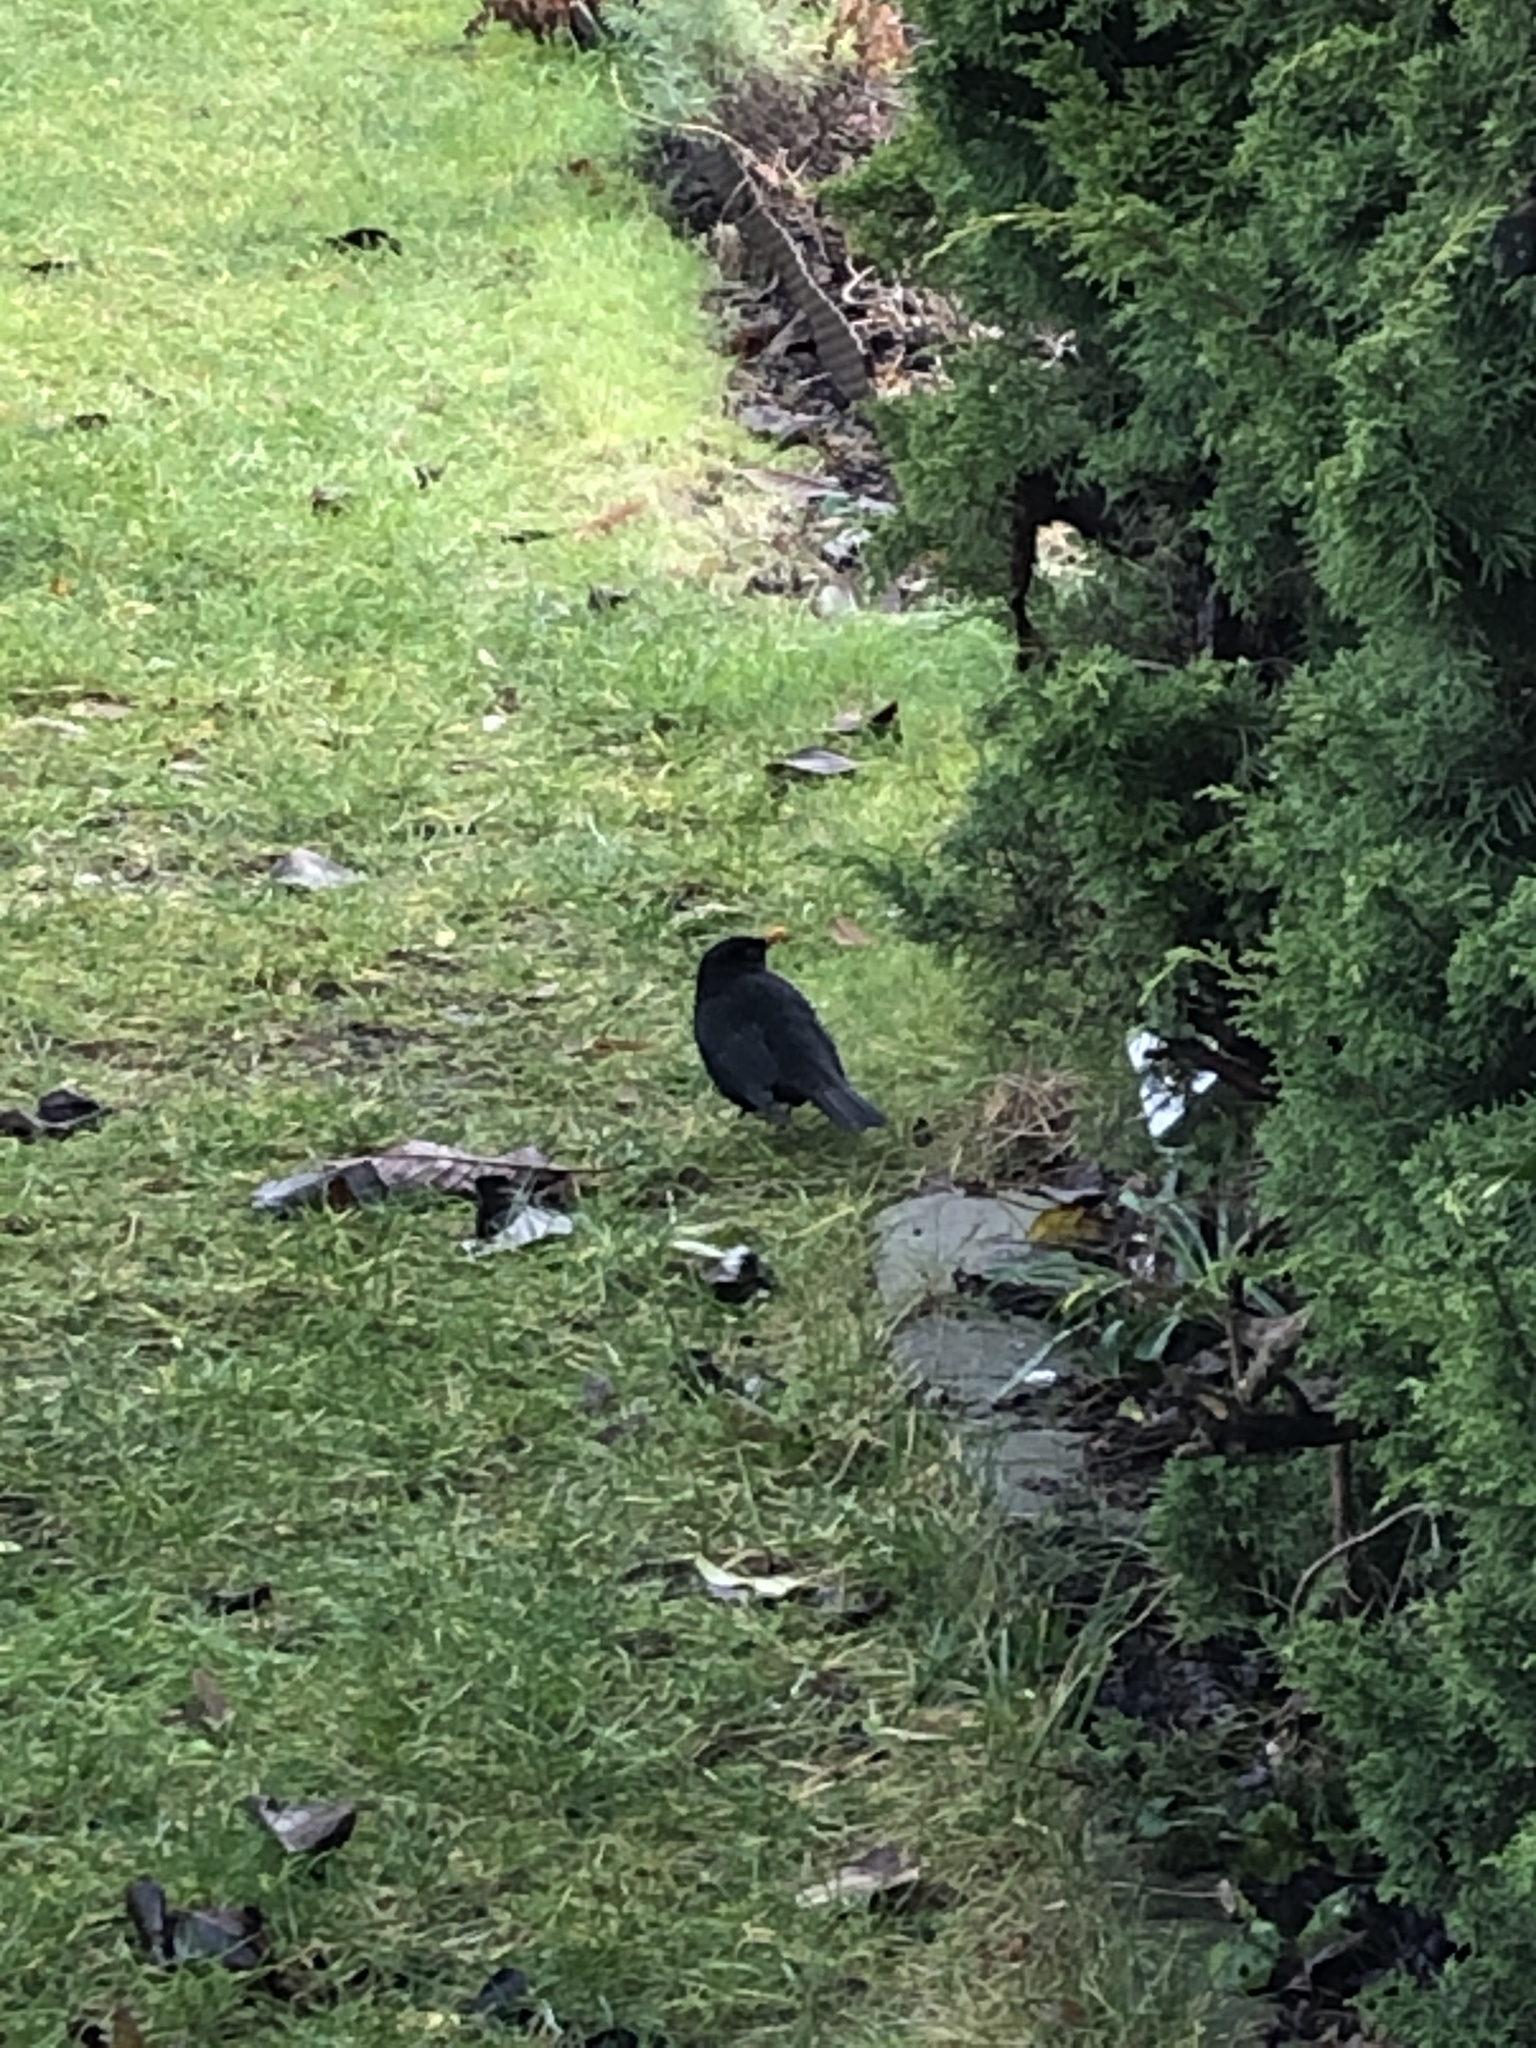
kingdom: Animalia
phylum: Chordata
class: Aves
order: Passeriformes
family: Turdidae
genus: Turdus
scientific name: Turdus merula
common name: Common blackbird
